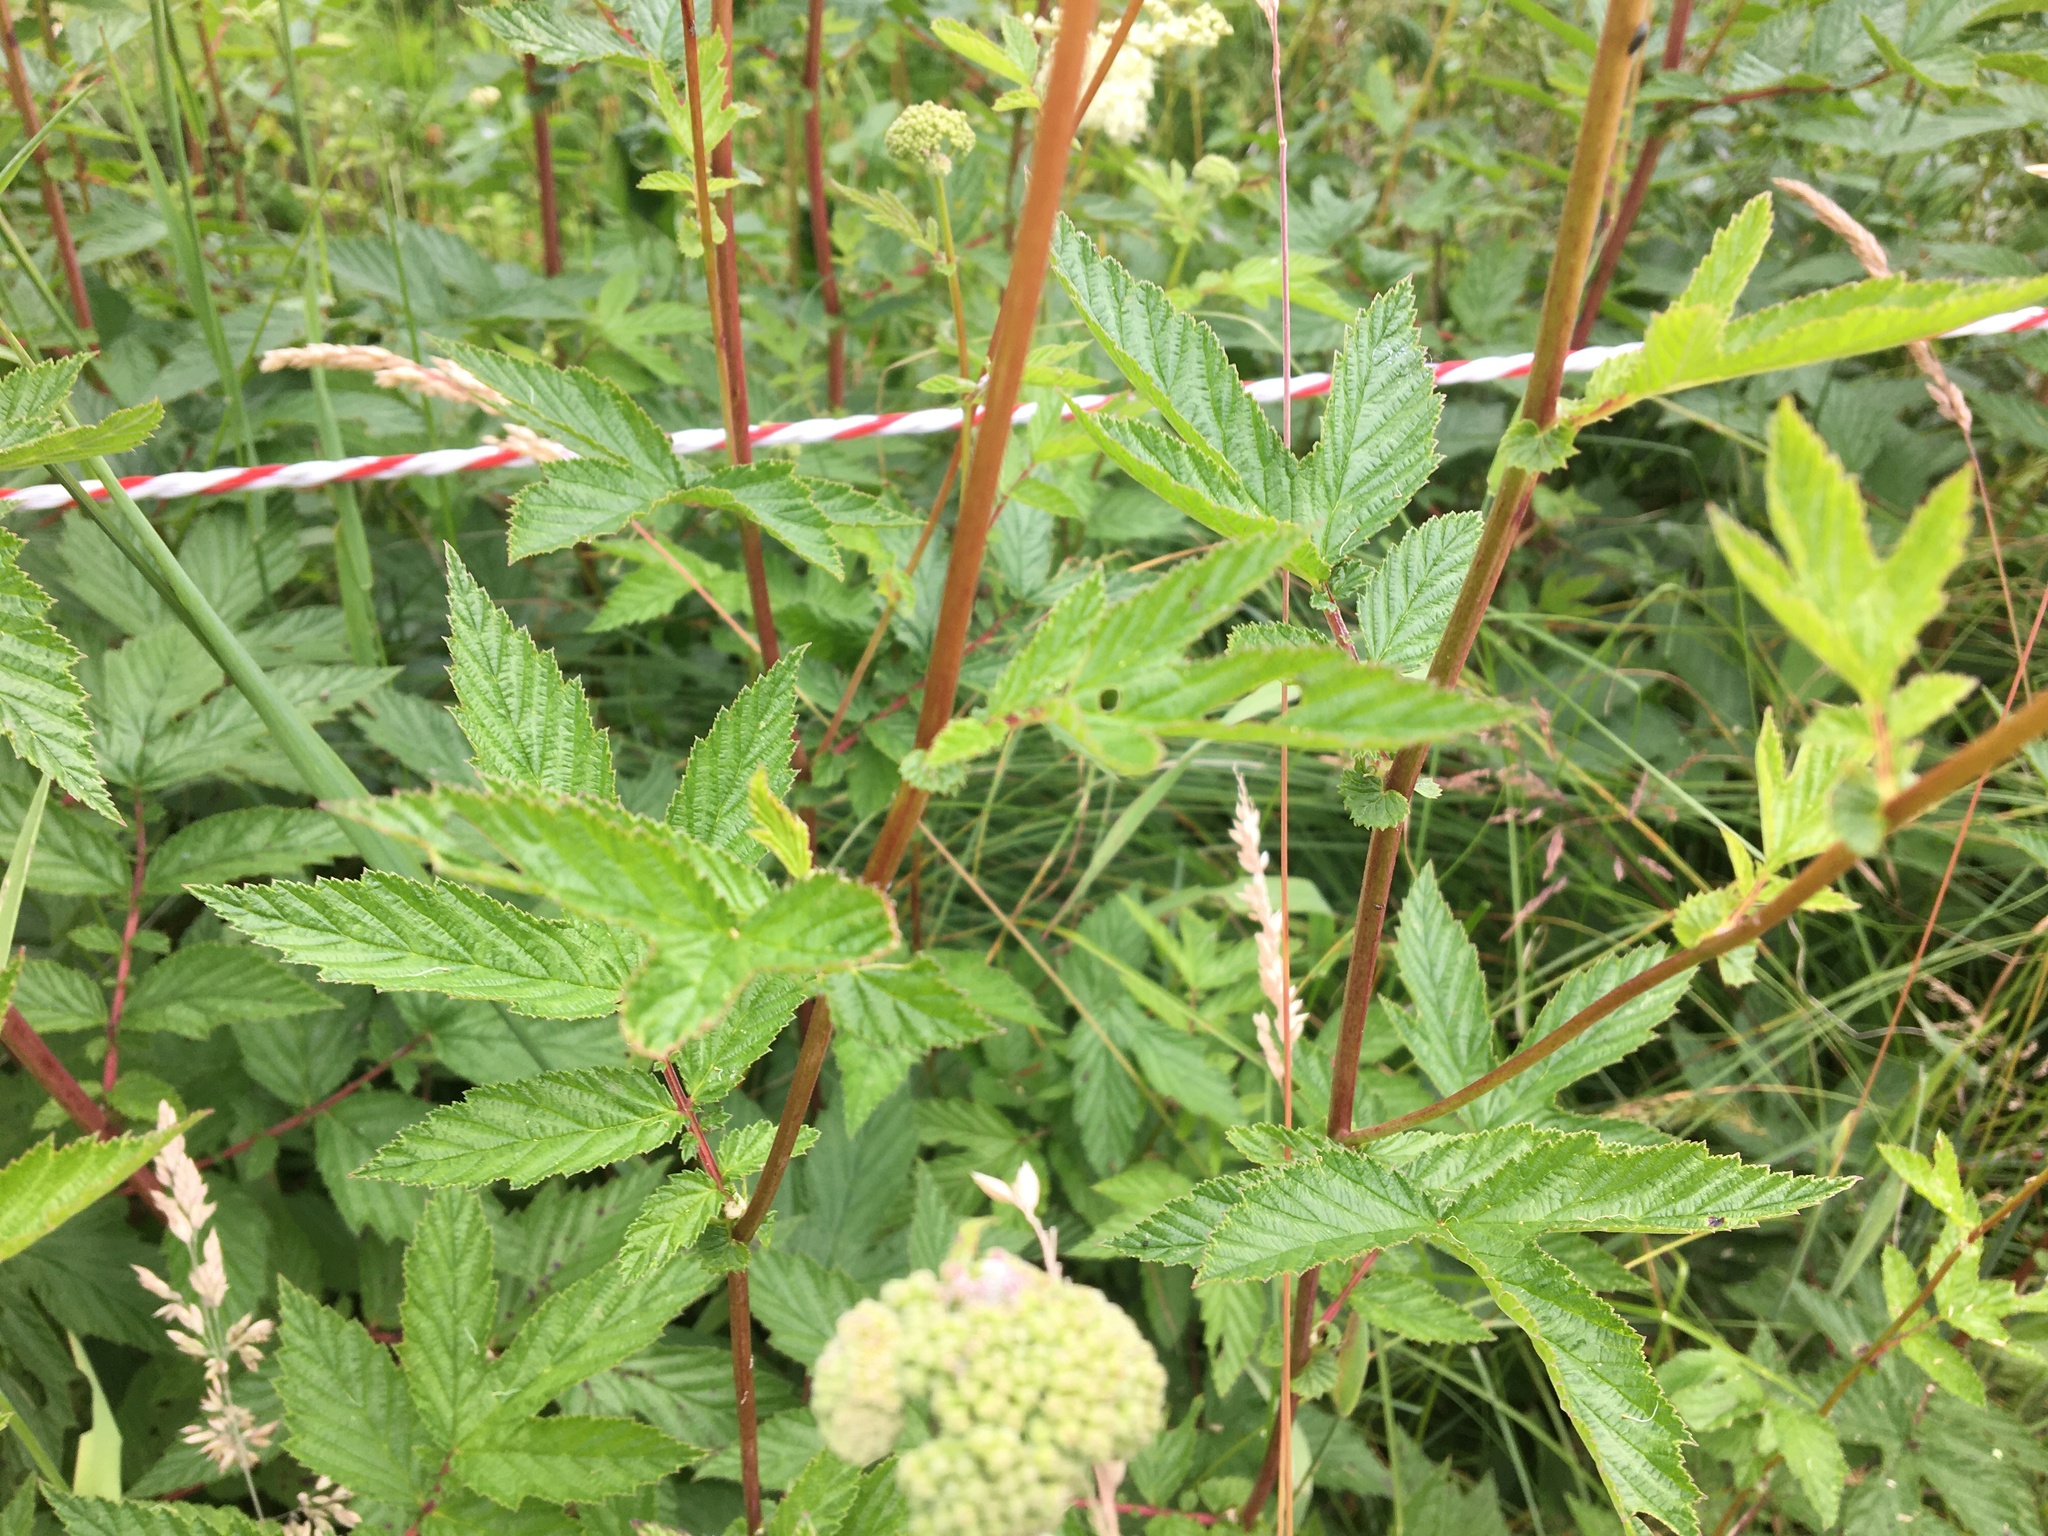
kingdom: Plantae
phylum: Tracheophyta
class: Magnoliopsida
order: Rosales
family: Rosaceae
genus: Filipendula
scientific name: Filipendula ulmaria
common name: Meadowsweet
